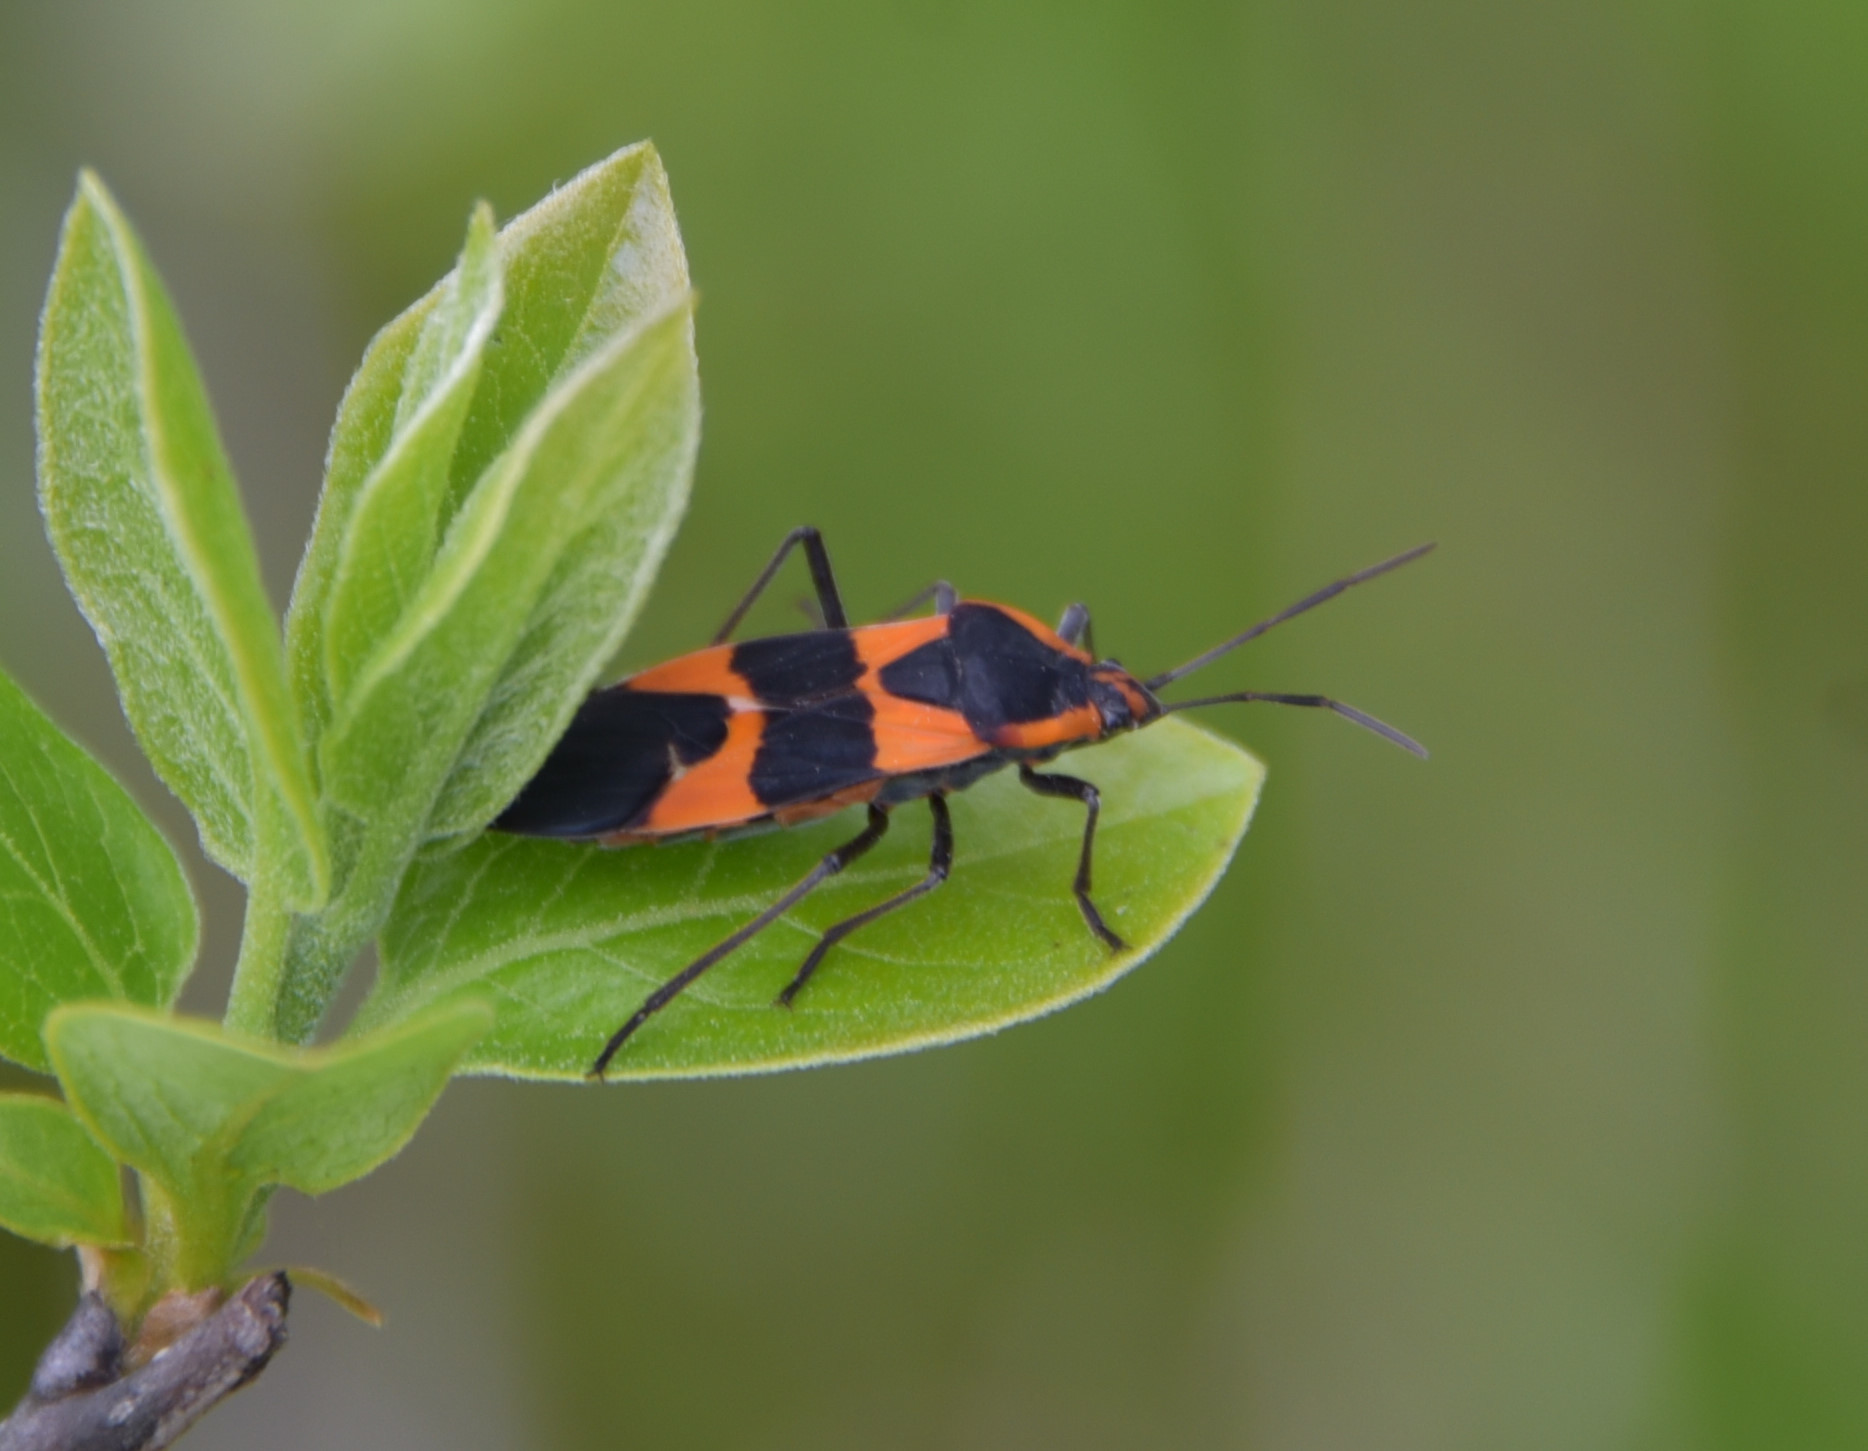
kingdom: Animalia
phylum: Arthropoda
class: Insecta
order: Hemiptera
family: Lygaeidae
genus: Oncopeltus
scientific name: Oncopeltus fasciatus
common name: Large milkweed bug
